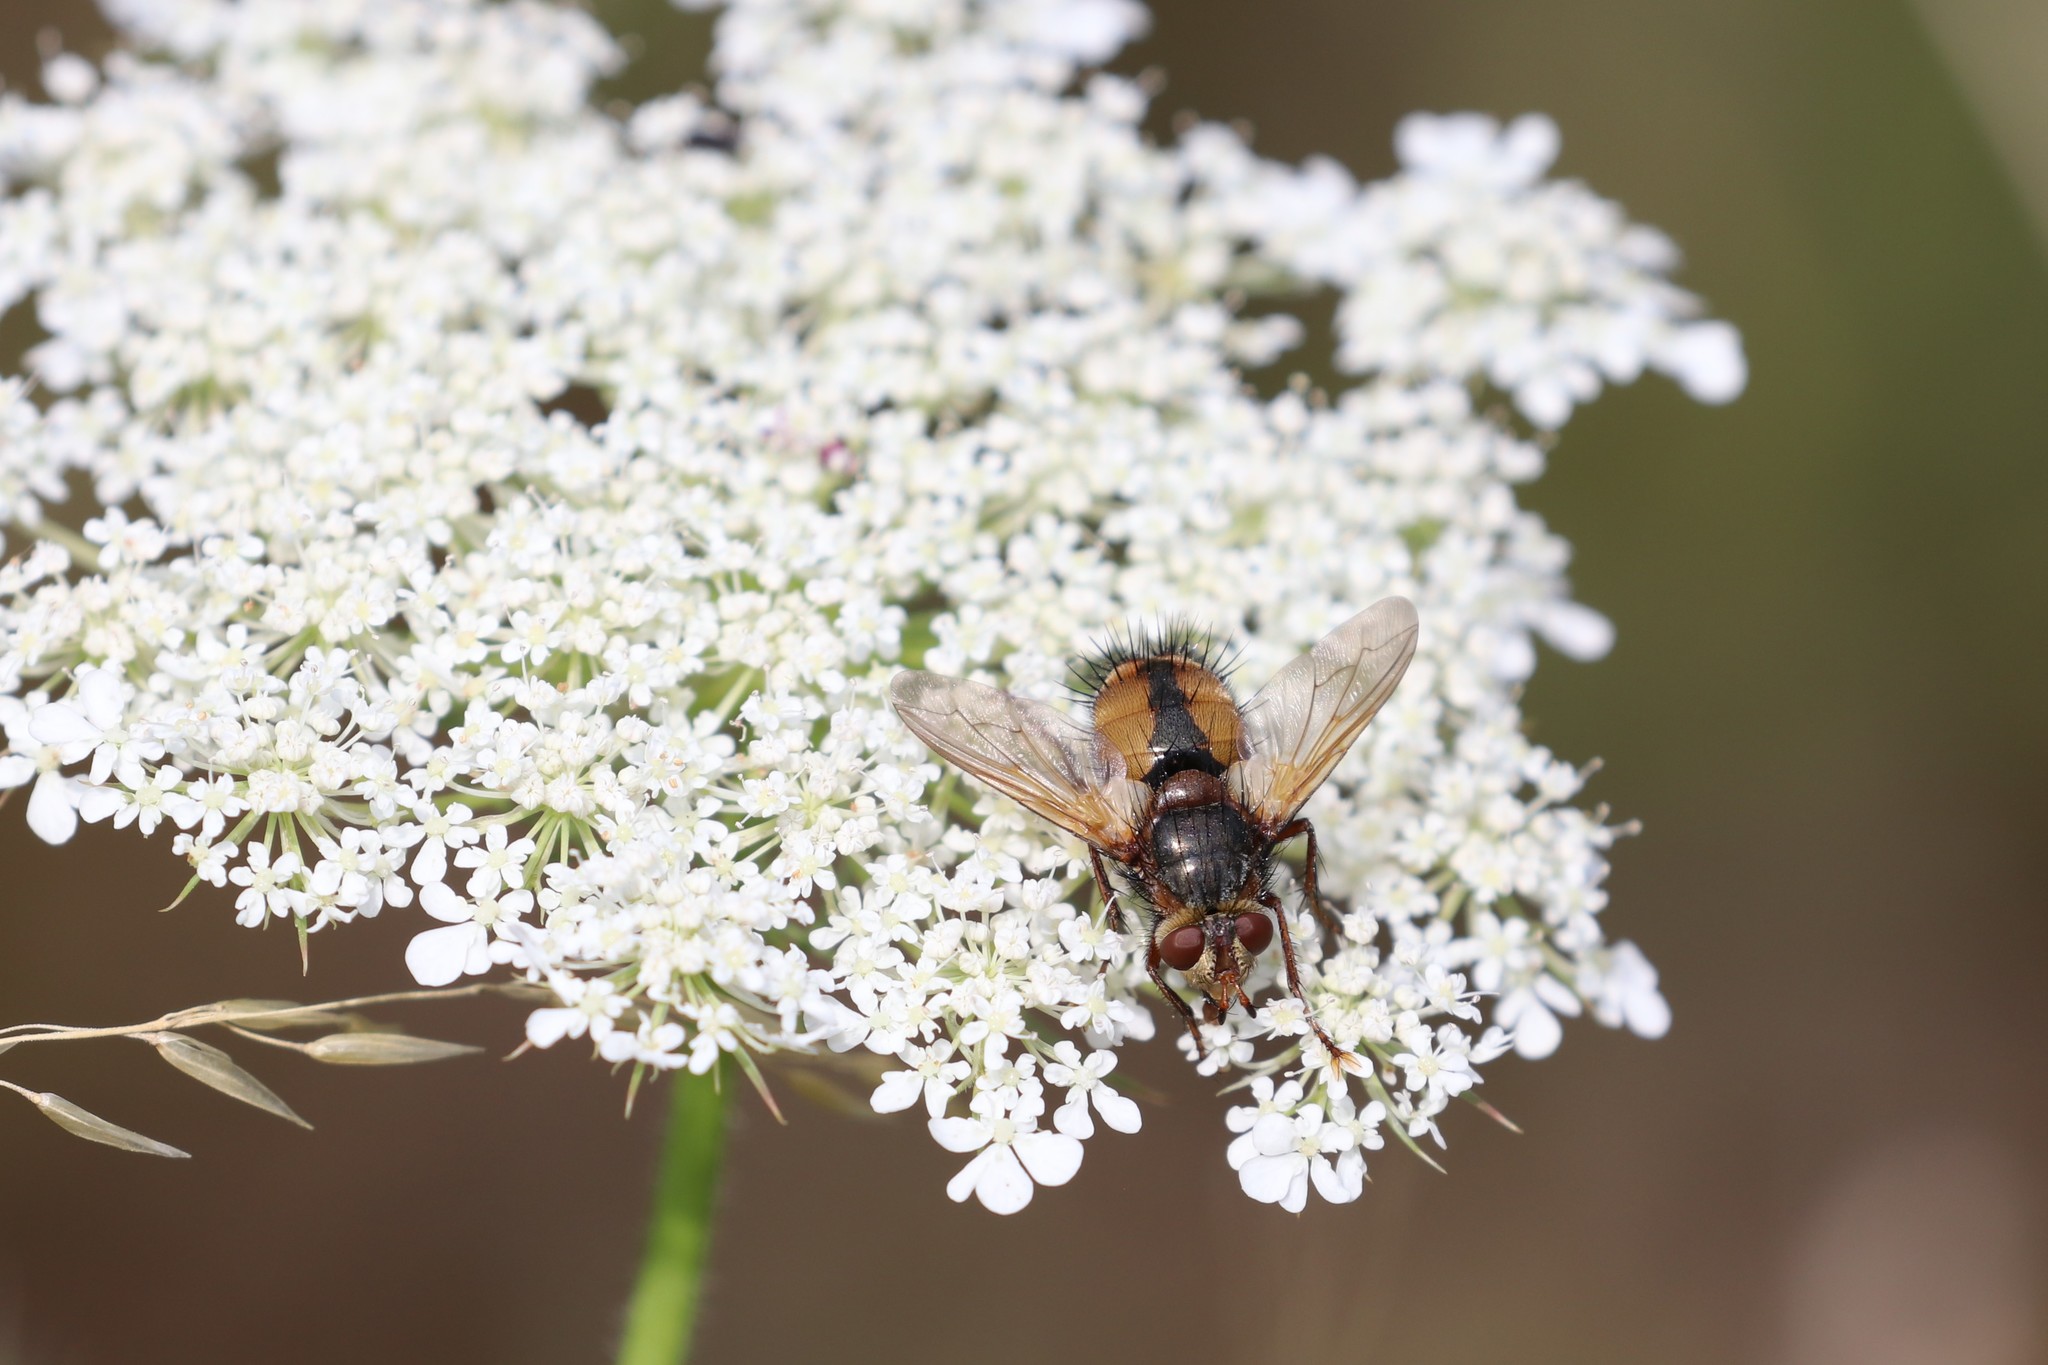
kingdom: Animalia
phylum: Arthropoda
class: Insecta
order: Diptera
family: Tachinidae
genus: Tachina
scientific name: Tachina fera
